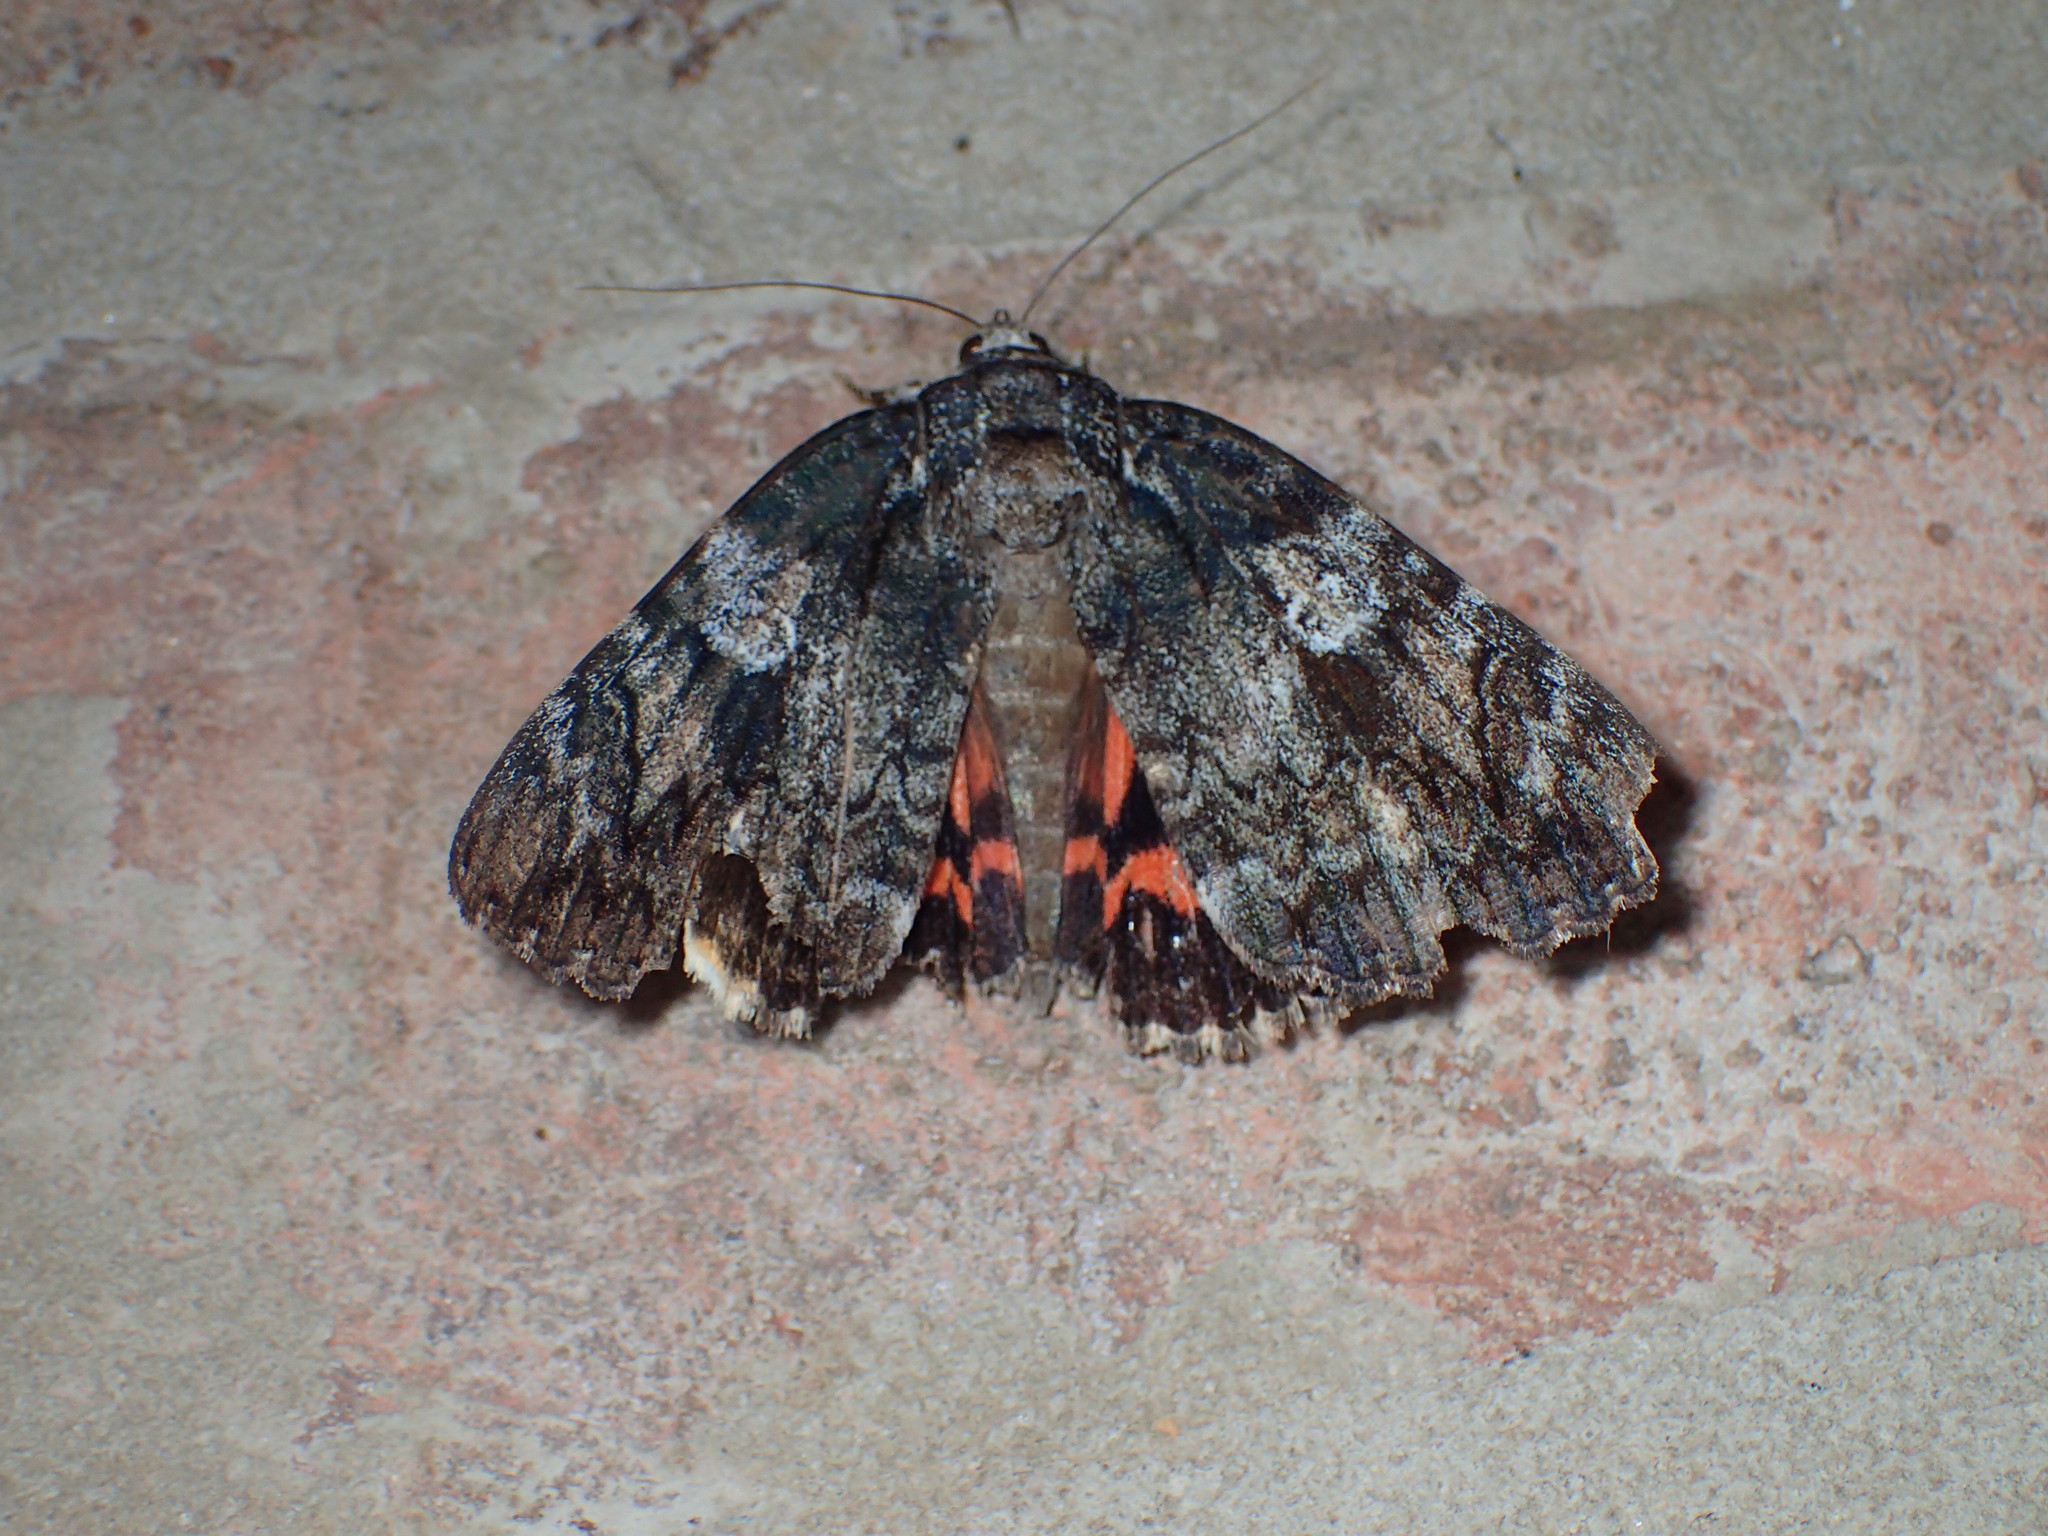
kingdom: Animalia
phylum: Arthropoda
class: Insecta
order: Lepidoptera
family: Erebidae
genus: Catocala
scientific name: Catocala ilia
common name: Ilia underwing
